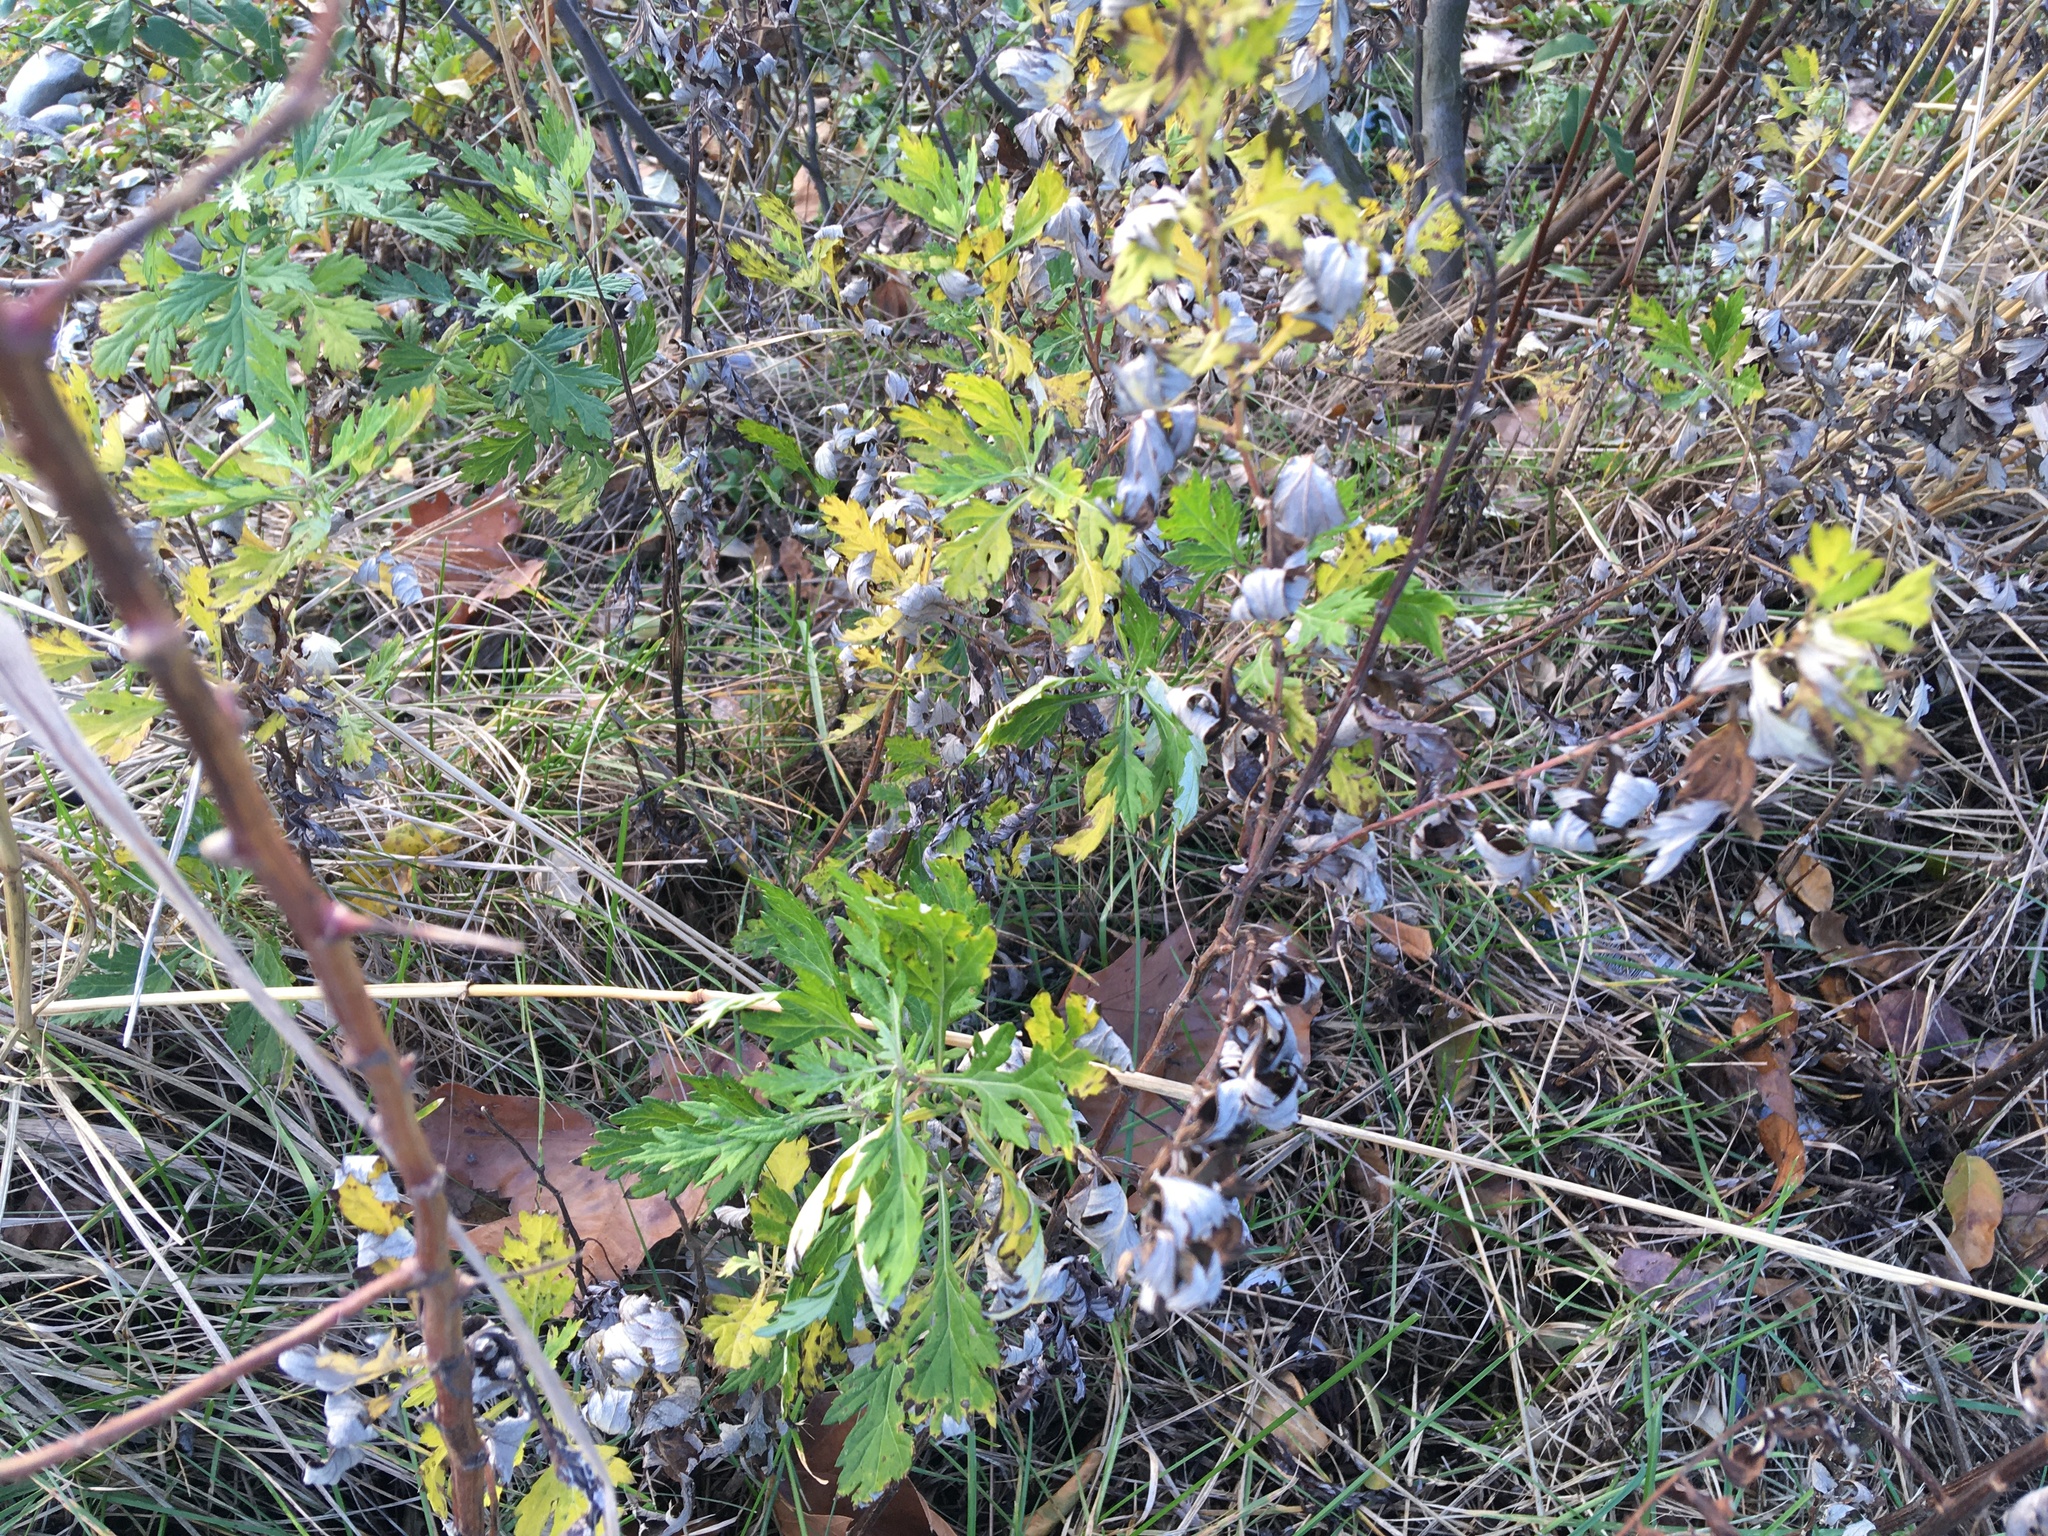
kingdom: Plantae
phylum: Tracheophyta
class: Magnoliopsida
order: Asterales
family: Asteraceae
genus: Artemisia
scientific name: Artemisia vulgaris
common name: Mugwort
